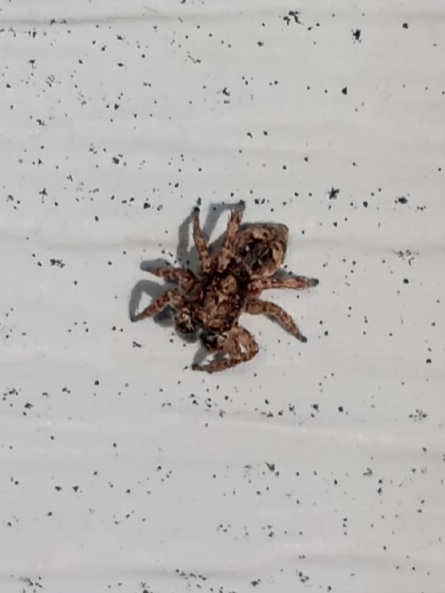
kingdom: Animalia
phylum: Arthropoda
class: Arachnida
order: Araneae
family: Salticidae
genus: Attulus
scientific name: Attulus fasciger
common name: Asiatic wall jumping spider
